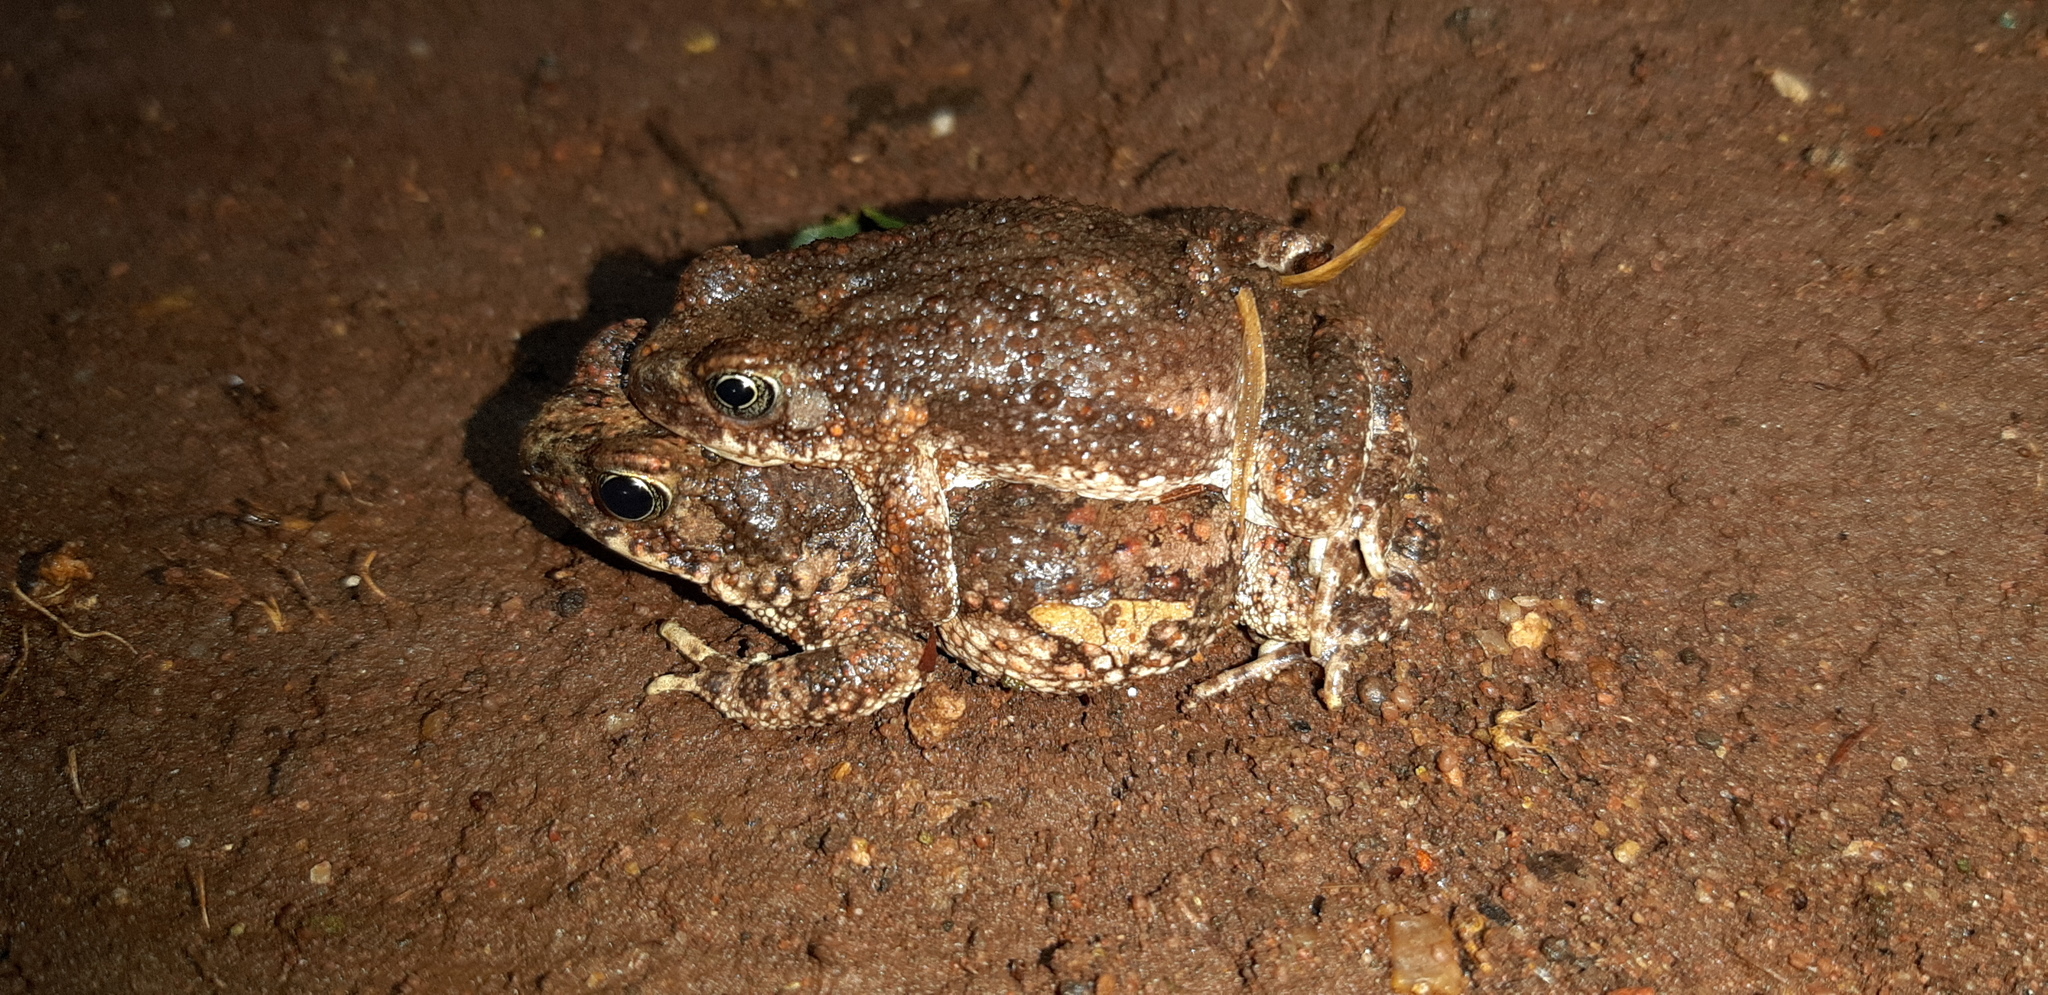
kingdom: Animalia
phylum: Chordata
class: Amphibia
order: Anura
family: Bufonidae
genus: Poyntonophrynus
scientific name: Poyntonophrynus fenoulheti
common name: Fenoulhet's toad
